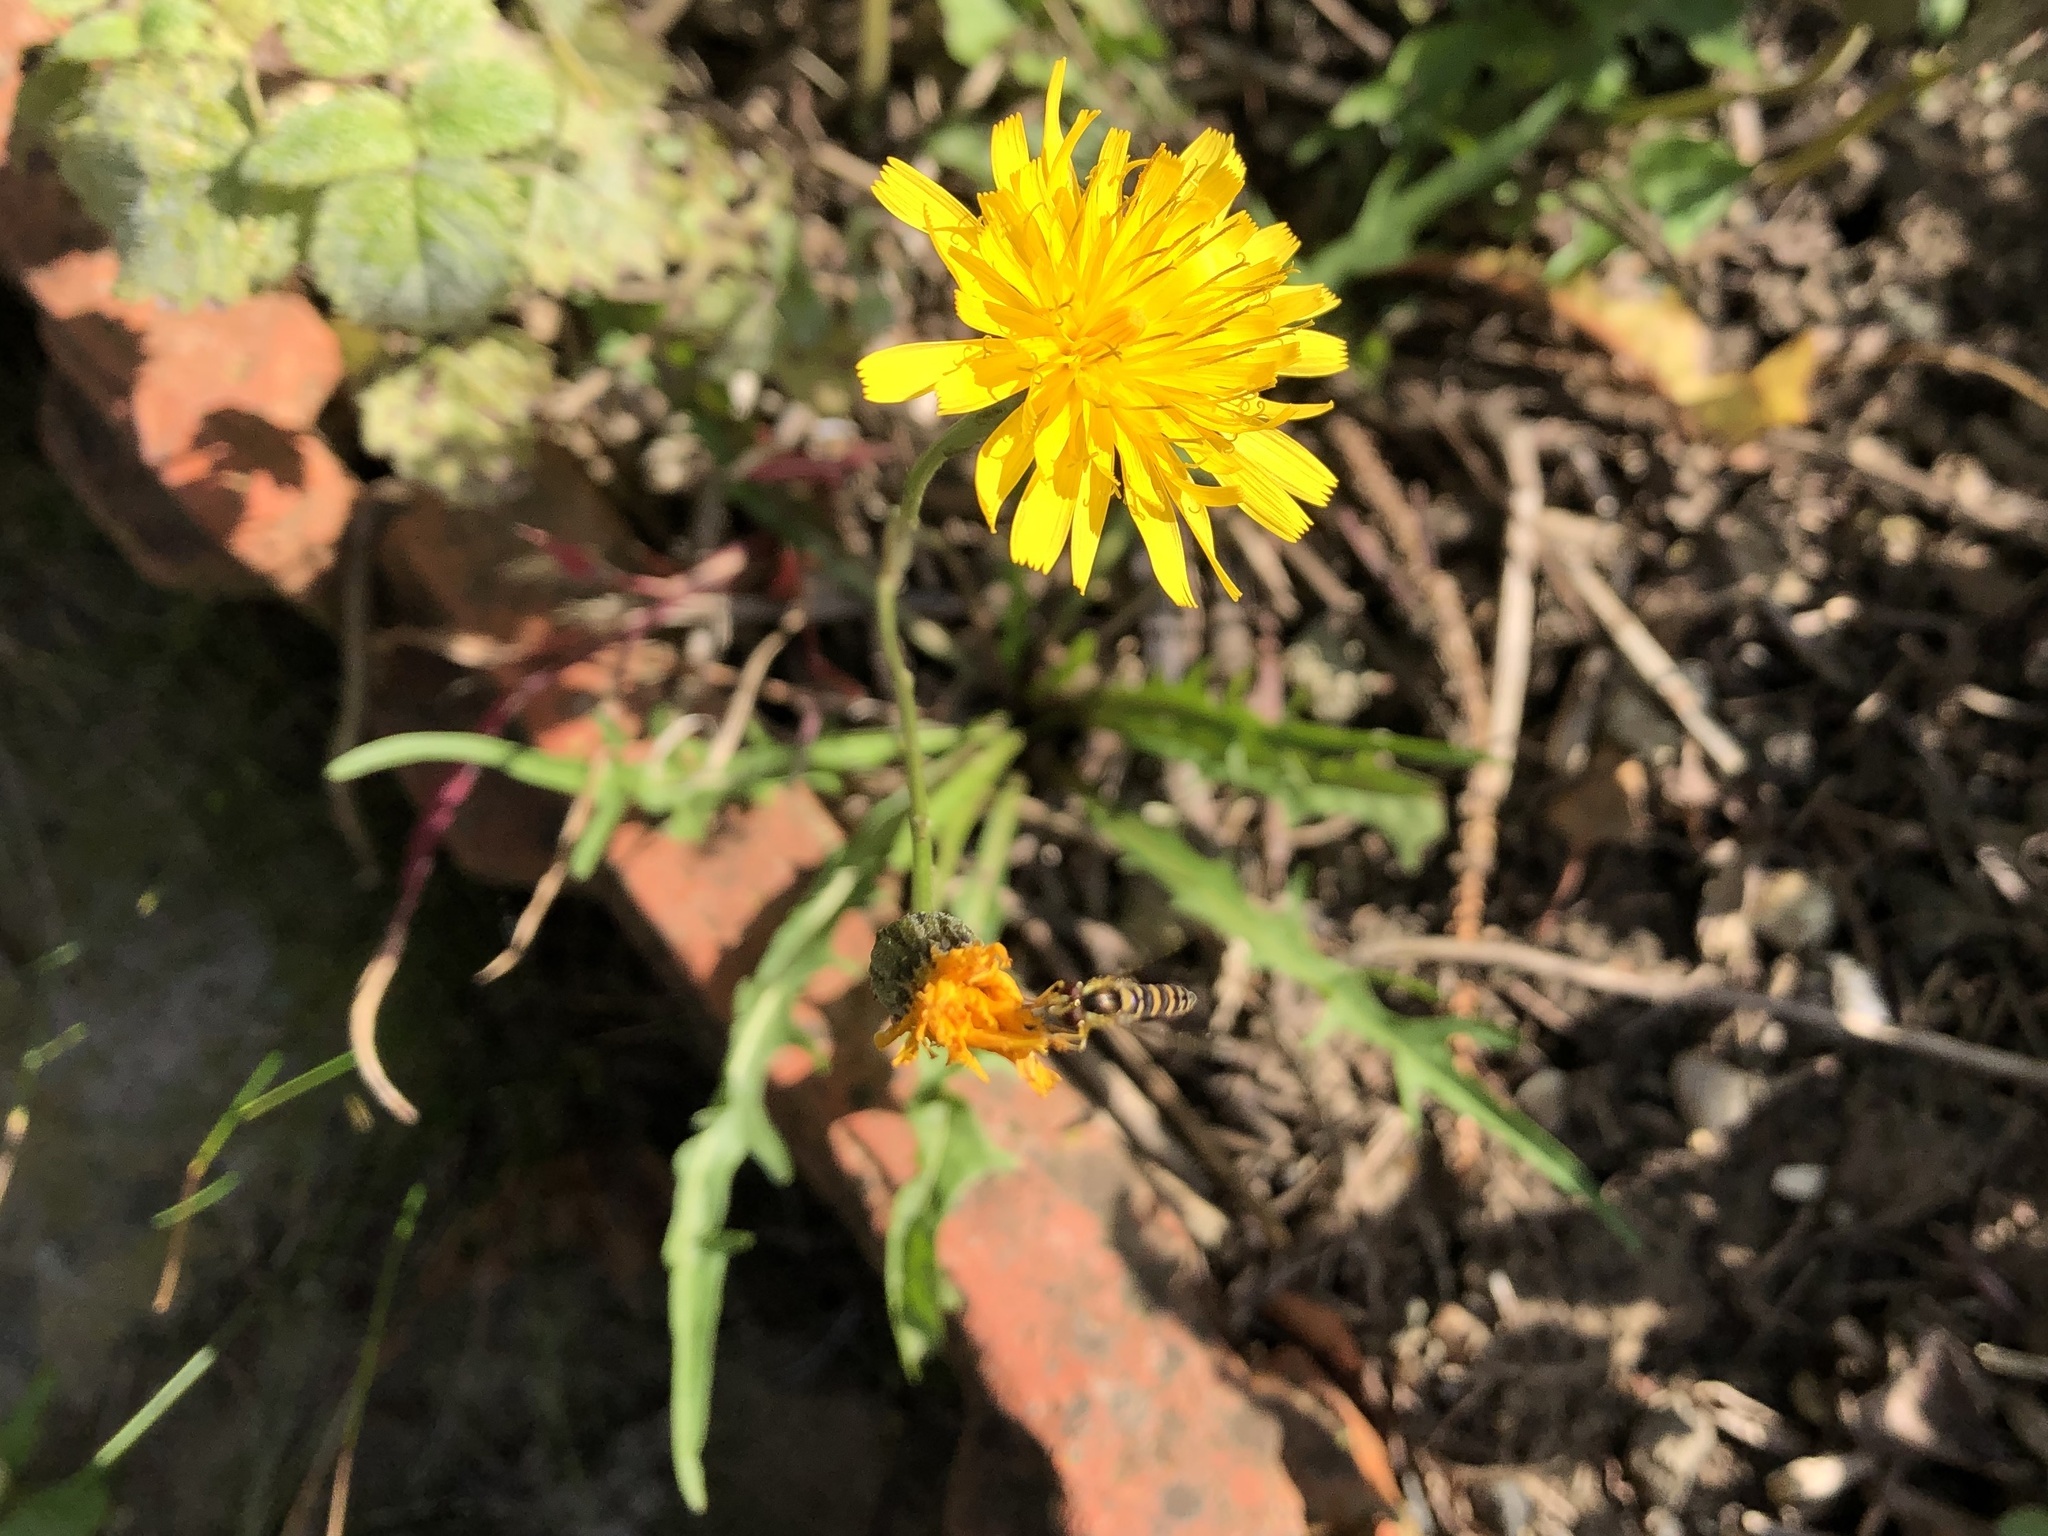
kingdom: Plantae
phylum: Tracheophyta
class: Magnoliopsida
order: Asterales
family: Asteraceae
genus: Scorzoneroides
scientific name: Scorzoneroides autumnalis
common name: Autumn hawkbit
